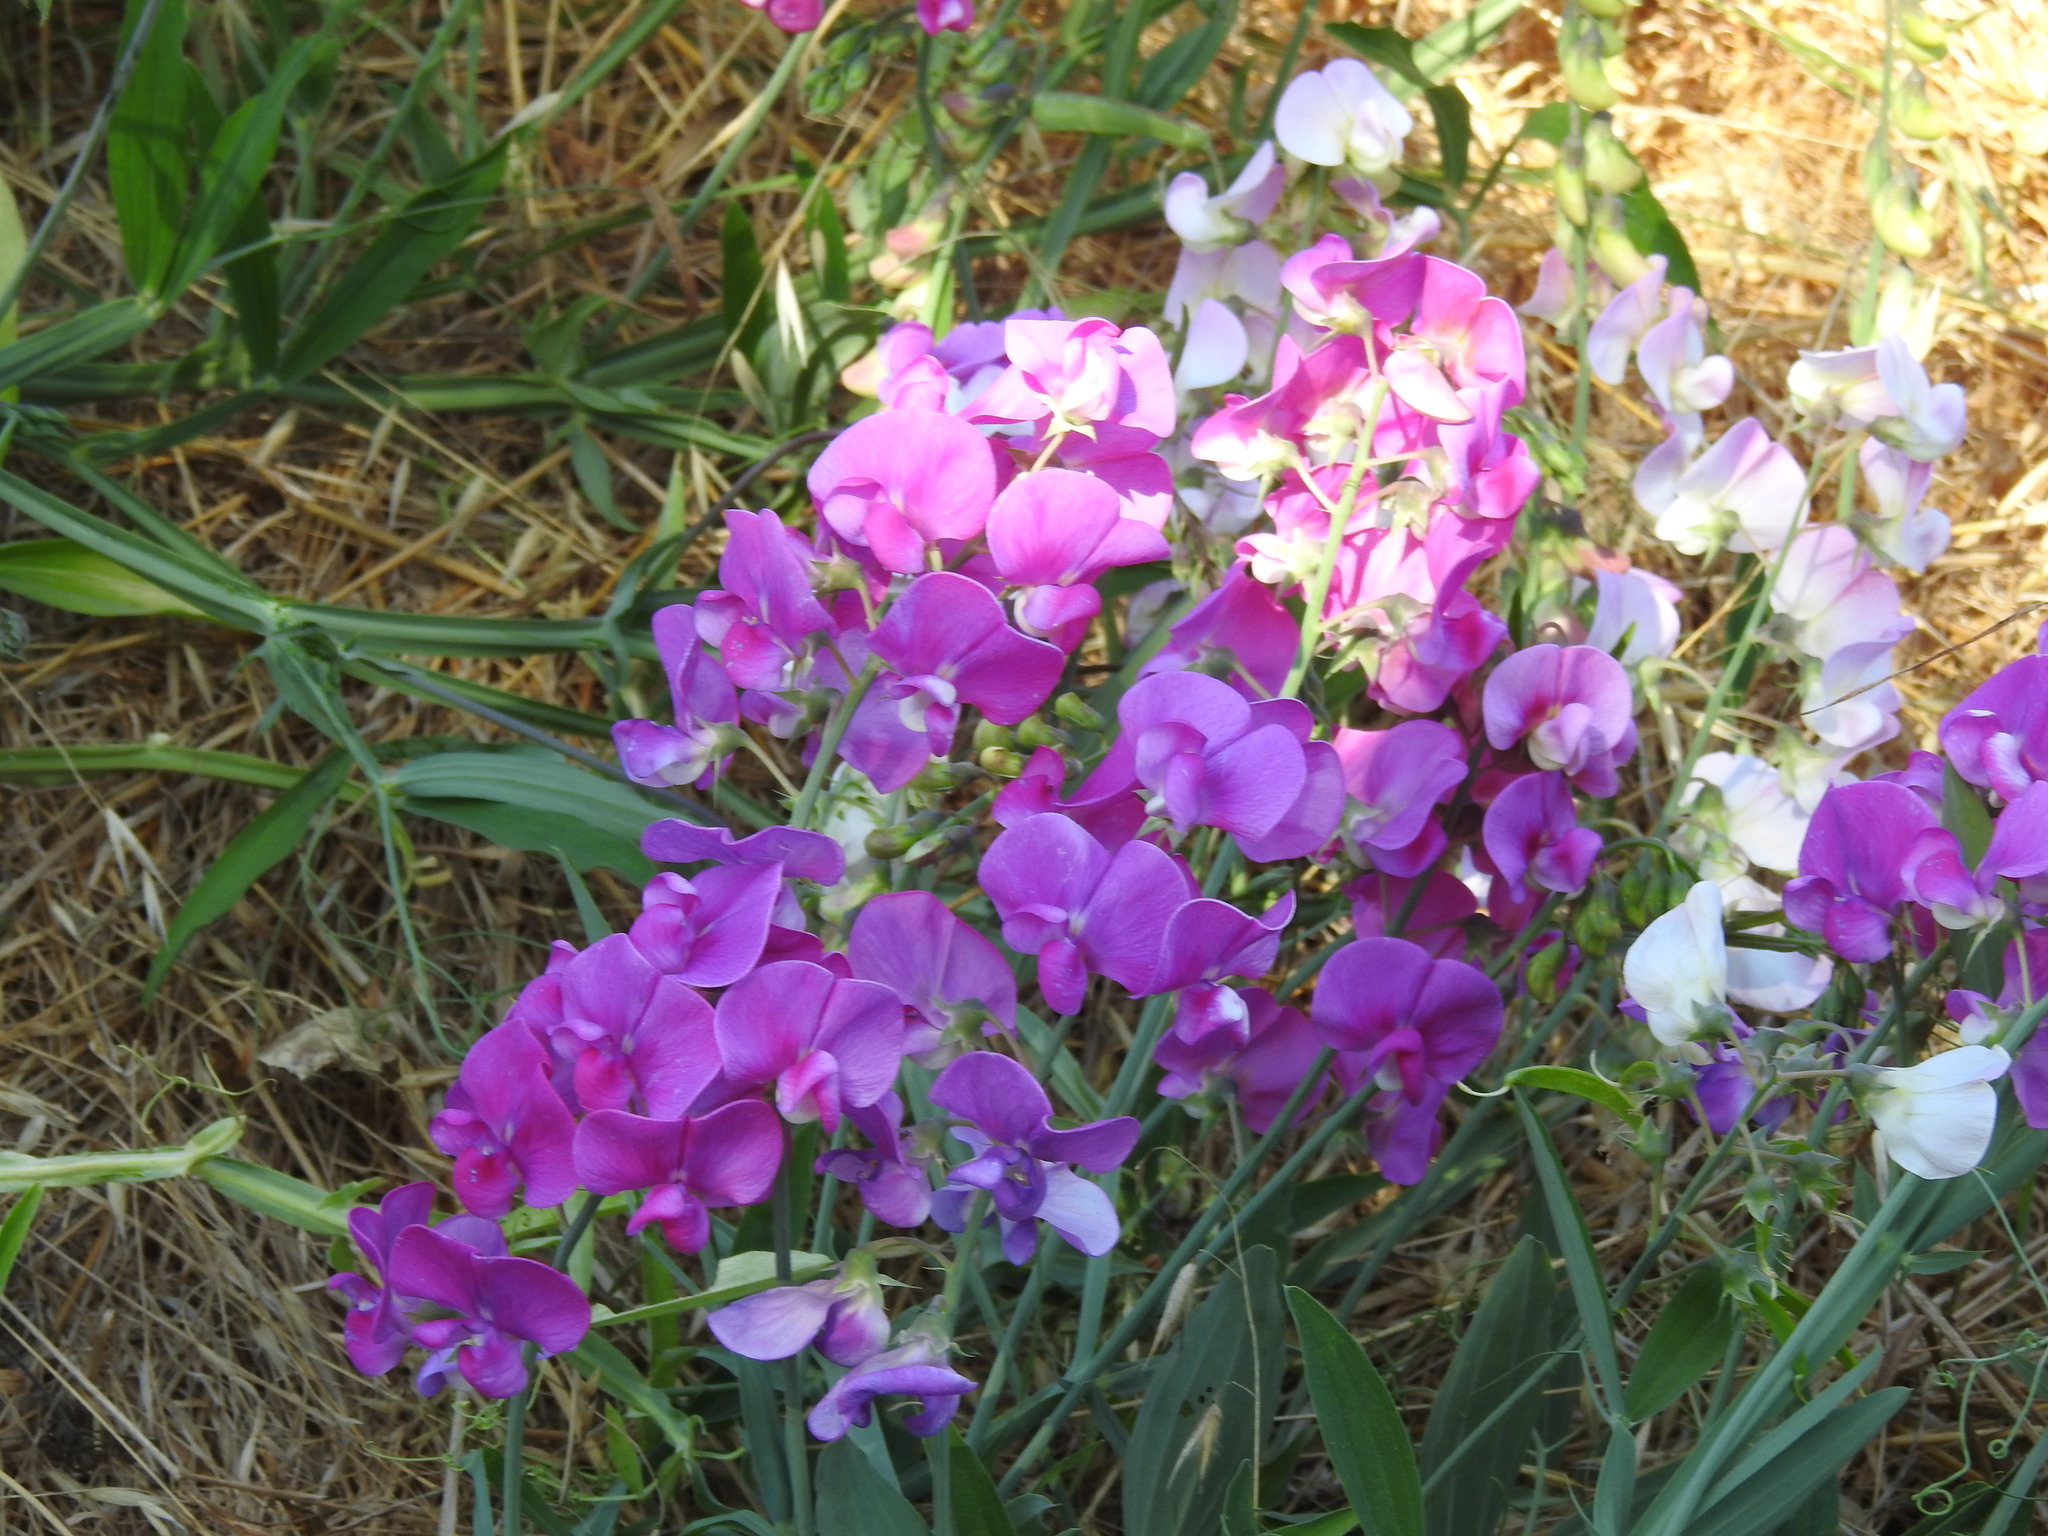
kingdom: Plantae
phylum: Tracheophyta
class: Magnoliopsida
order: Fabales
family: Fabaceae
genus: Lathyrus
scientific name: Lathyrus latifolius
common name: Perennial pea
